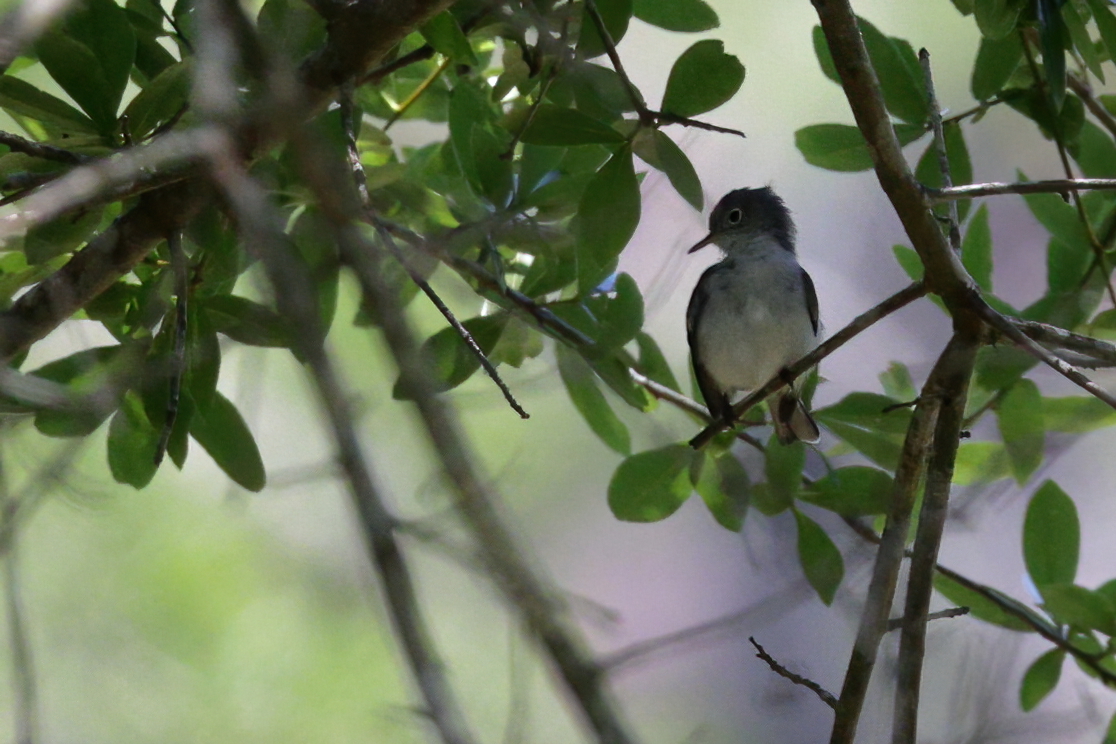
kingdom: Animalia
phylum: Chordata
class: Aves
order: Passeriformes
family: Polioptilidae
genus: Polioptila
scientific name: Polioptila caerulea
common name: Blue-gray gnatcatcher
